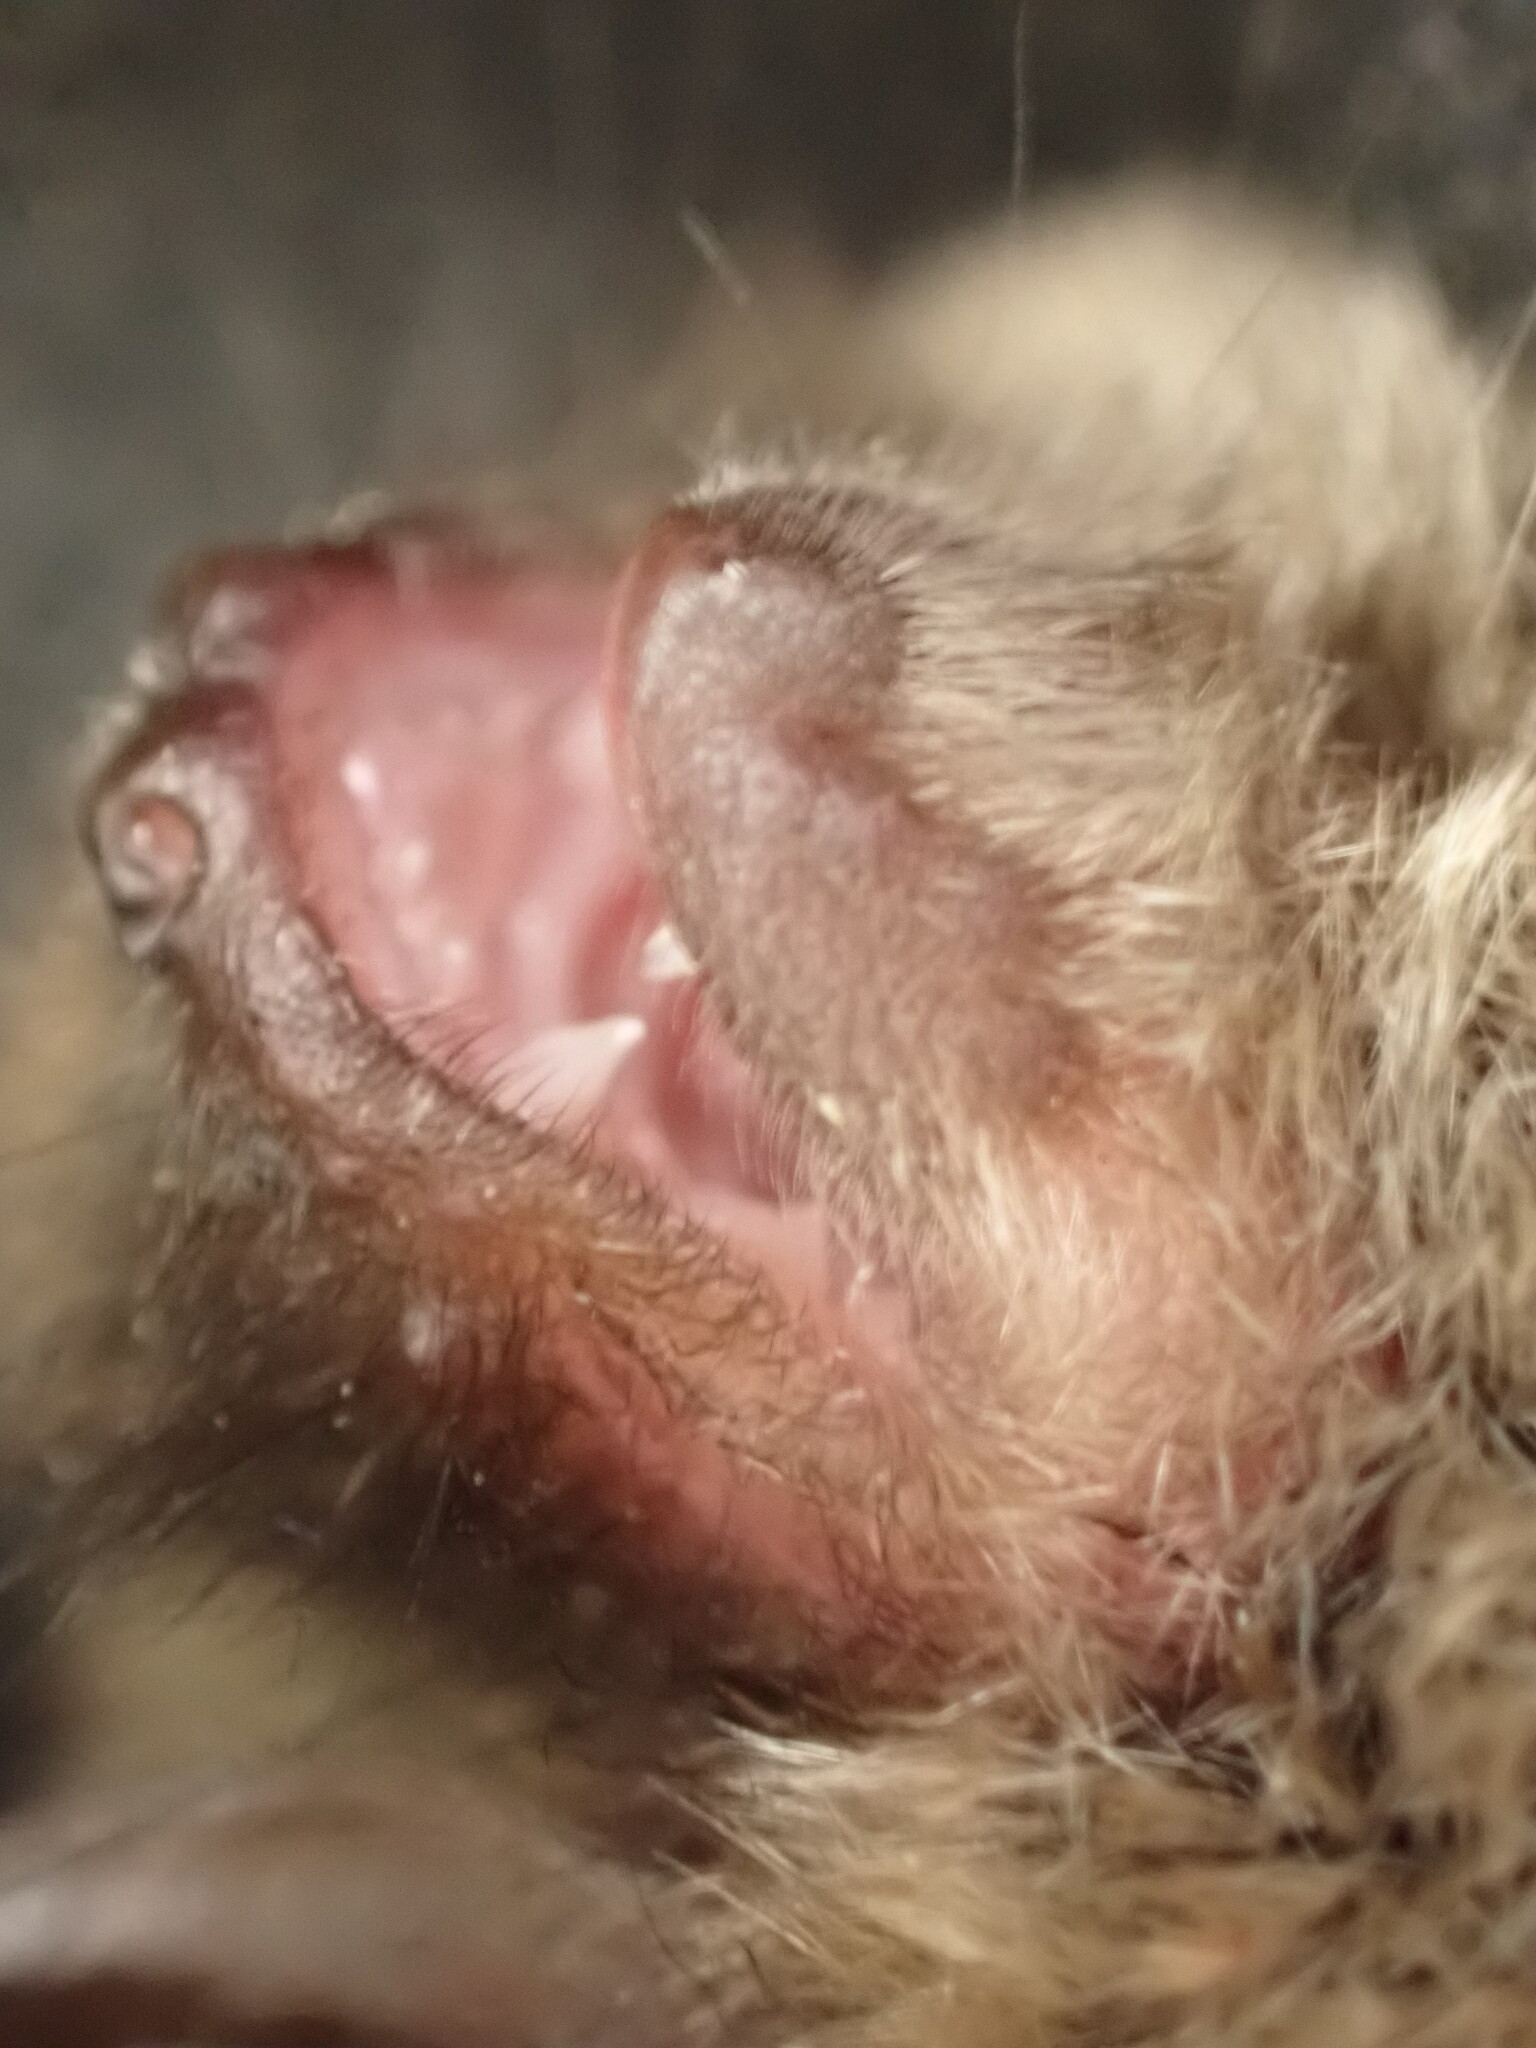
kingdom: Animalia
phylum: Chordata
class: Mammalia
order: Chiroptera
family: Vespertilionidae
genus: Myotis
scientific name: Myotis mystacinus
